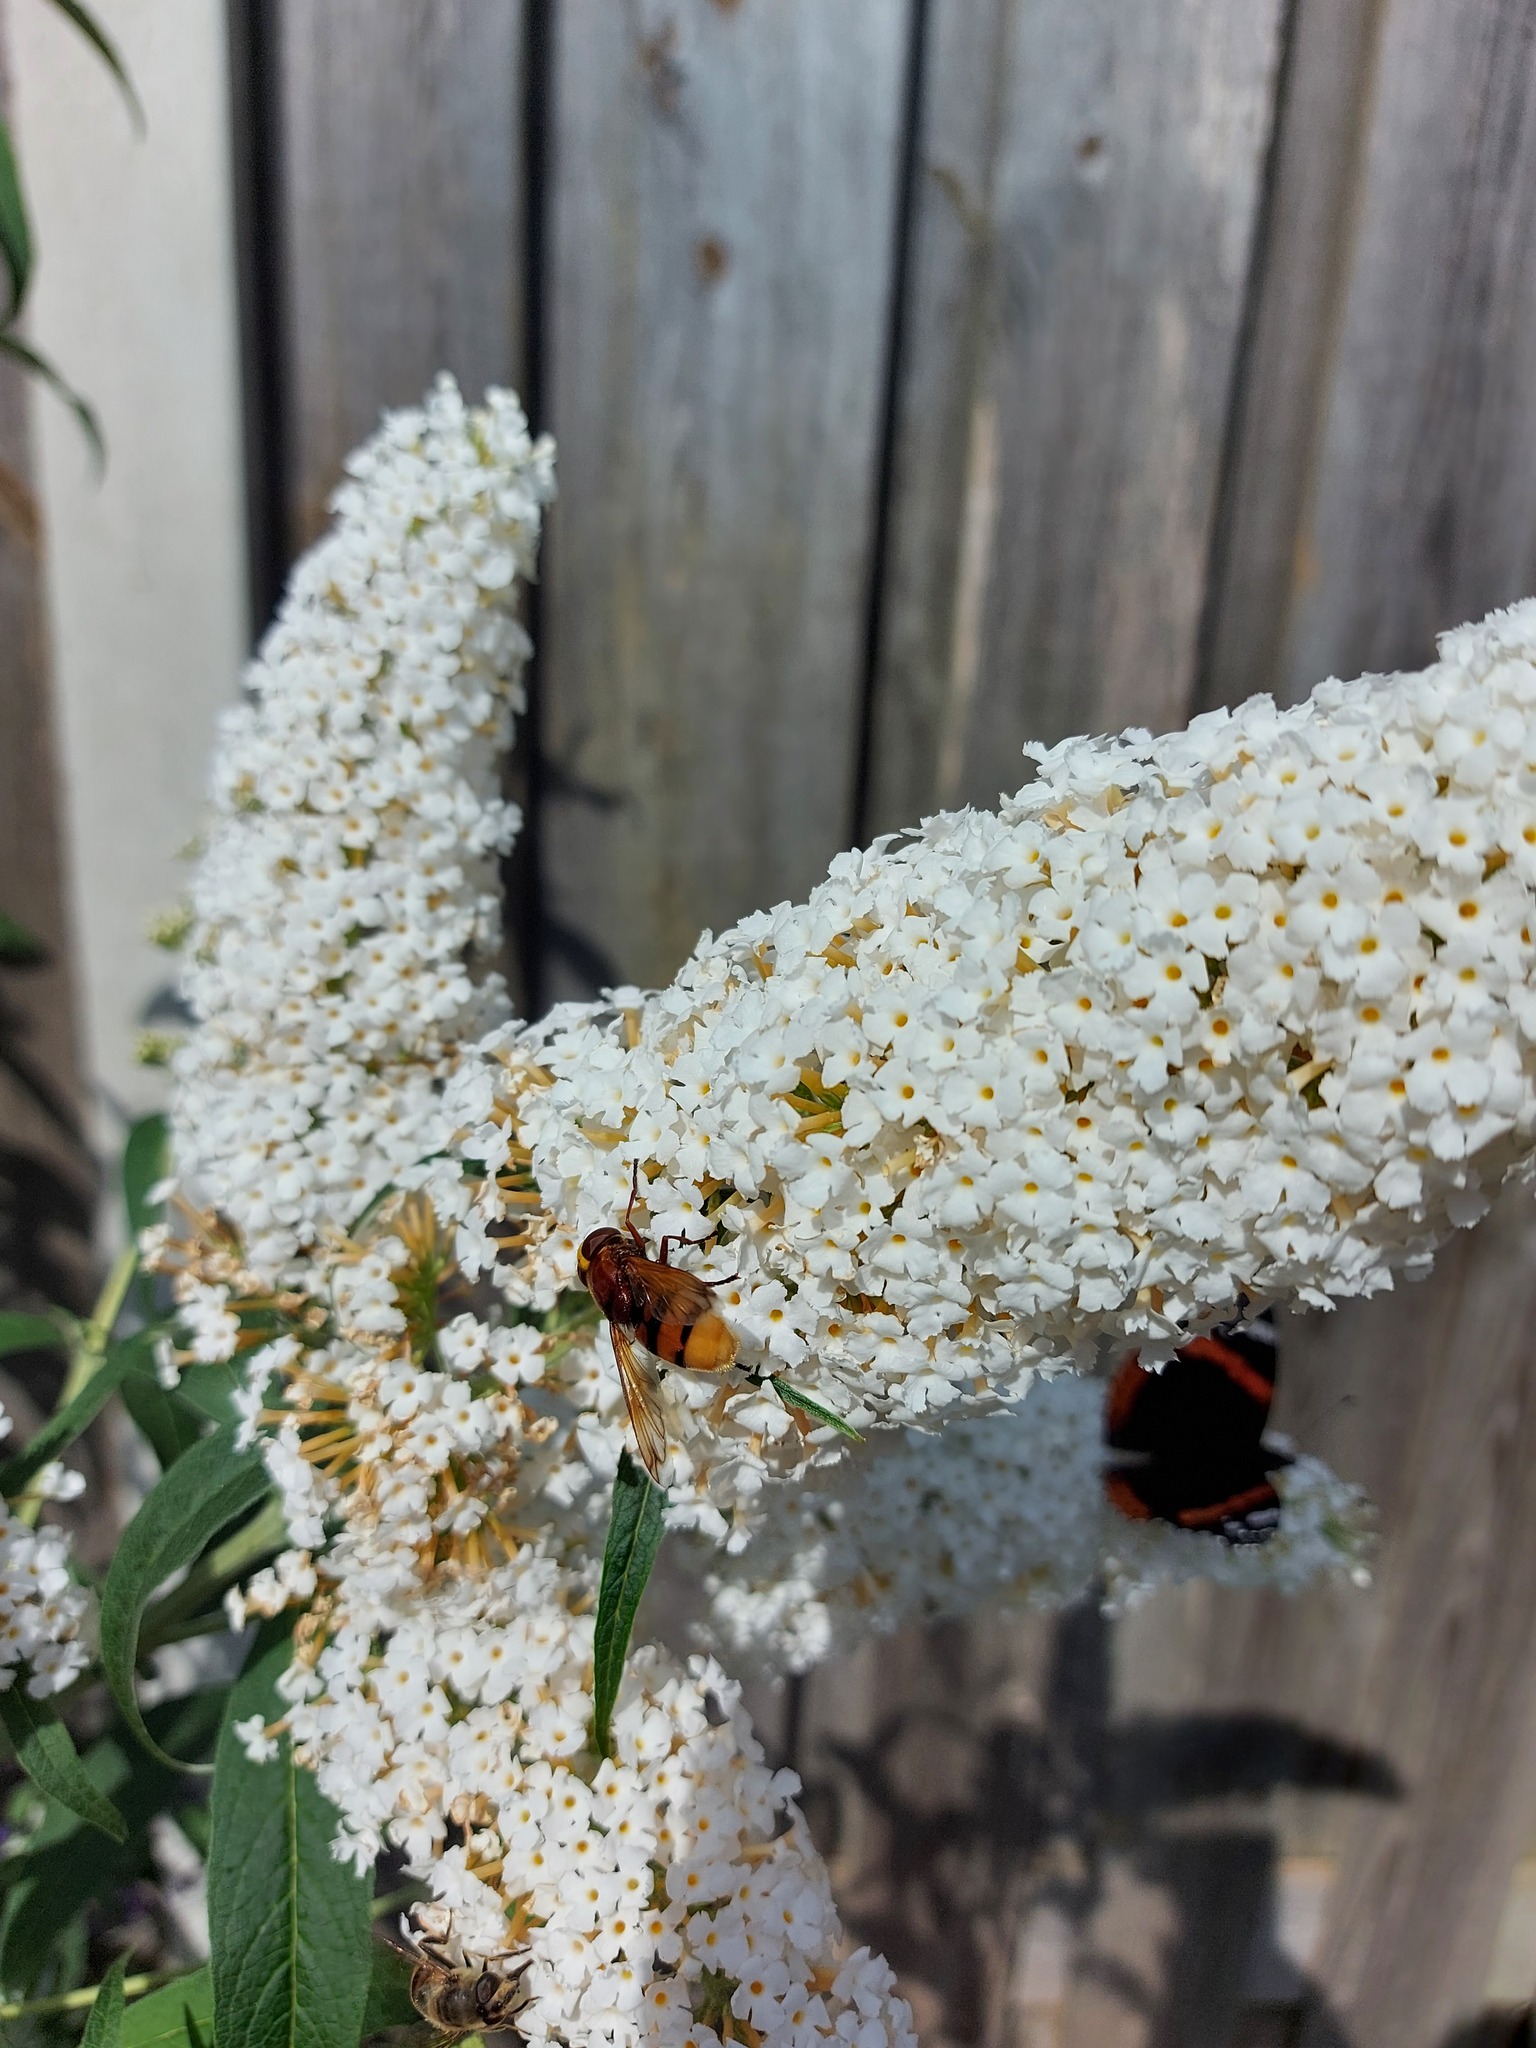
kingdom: Animalia
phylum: Arthropoda
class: Insecta
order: Diptera
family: Syrphidae
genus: Volucella
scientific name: Volucella zonaria
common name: Hornet hoverfly
